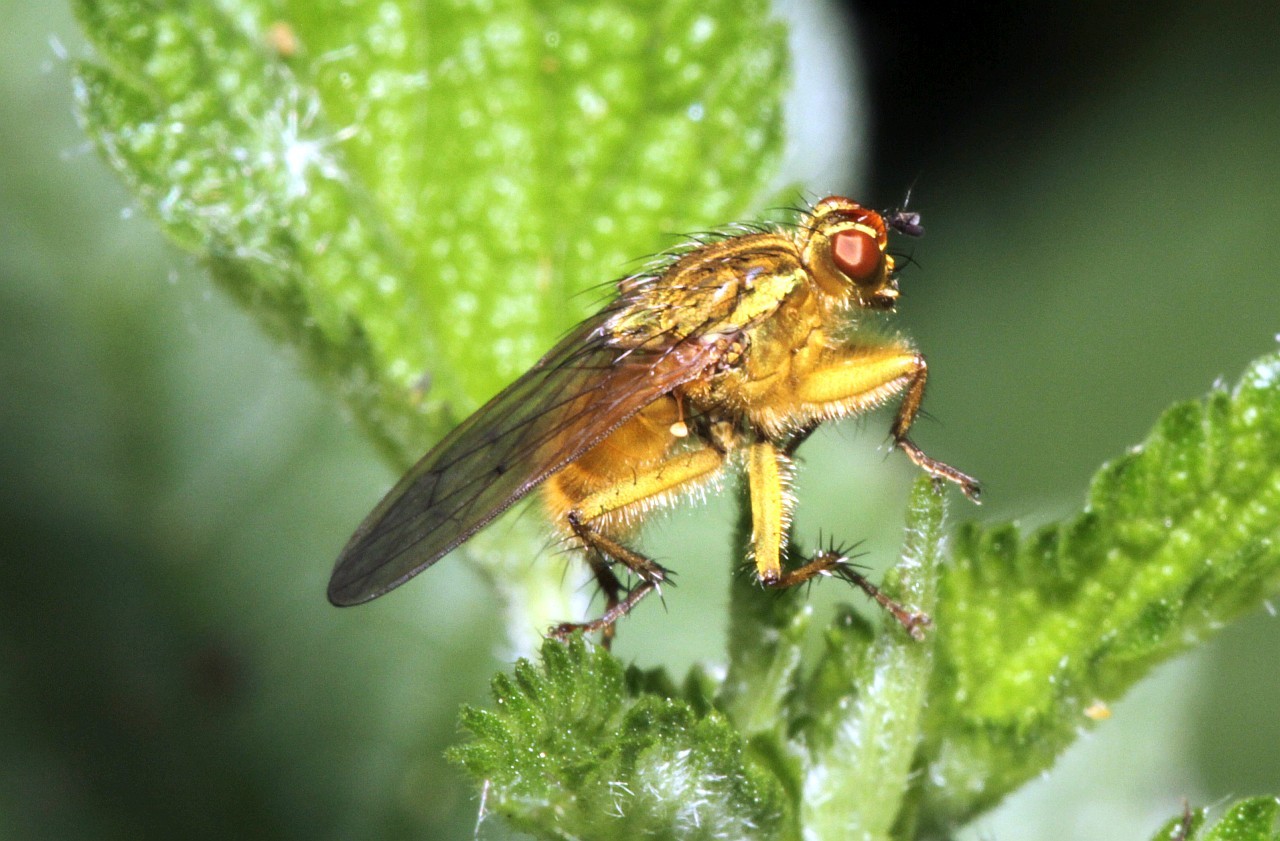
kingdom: Animalia
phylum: Arthropoda
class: Insecta
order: Diptera
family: Scathophagidae
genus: Scathophaga
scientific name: Scathophaga stercoraria
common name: Yellow dung fly
